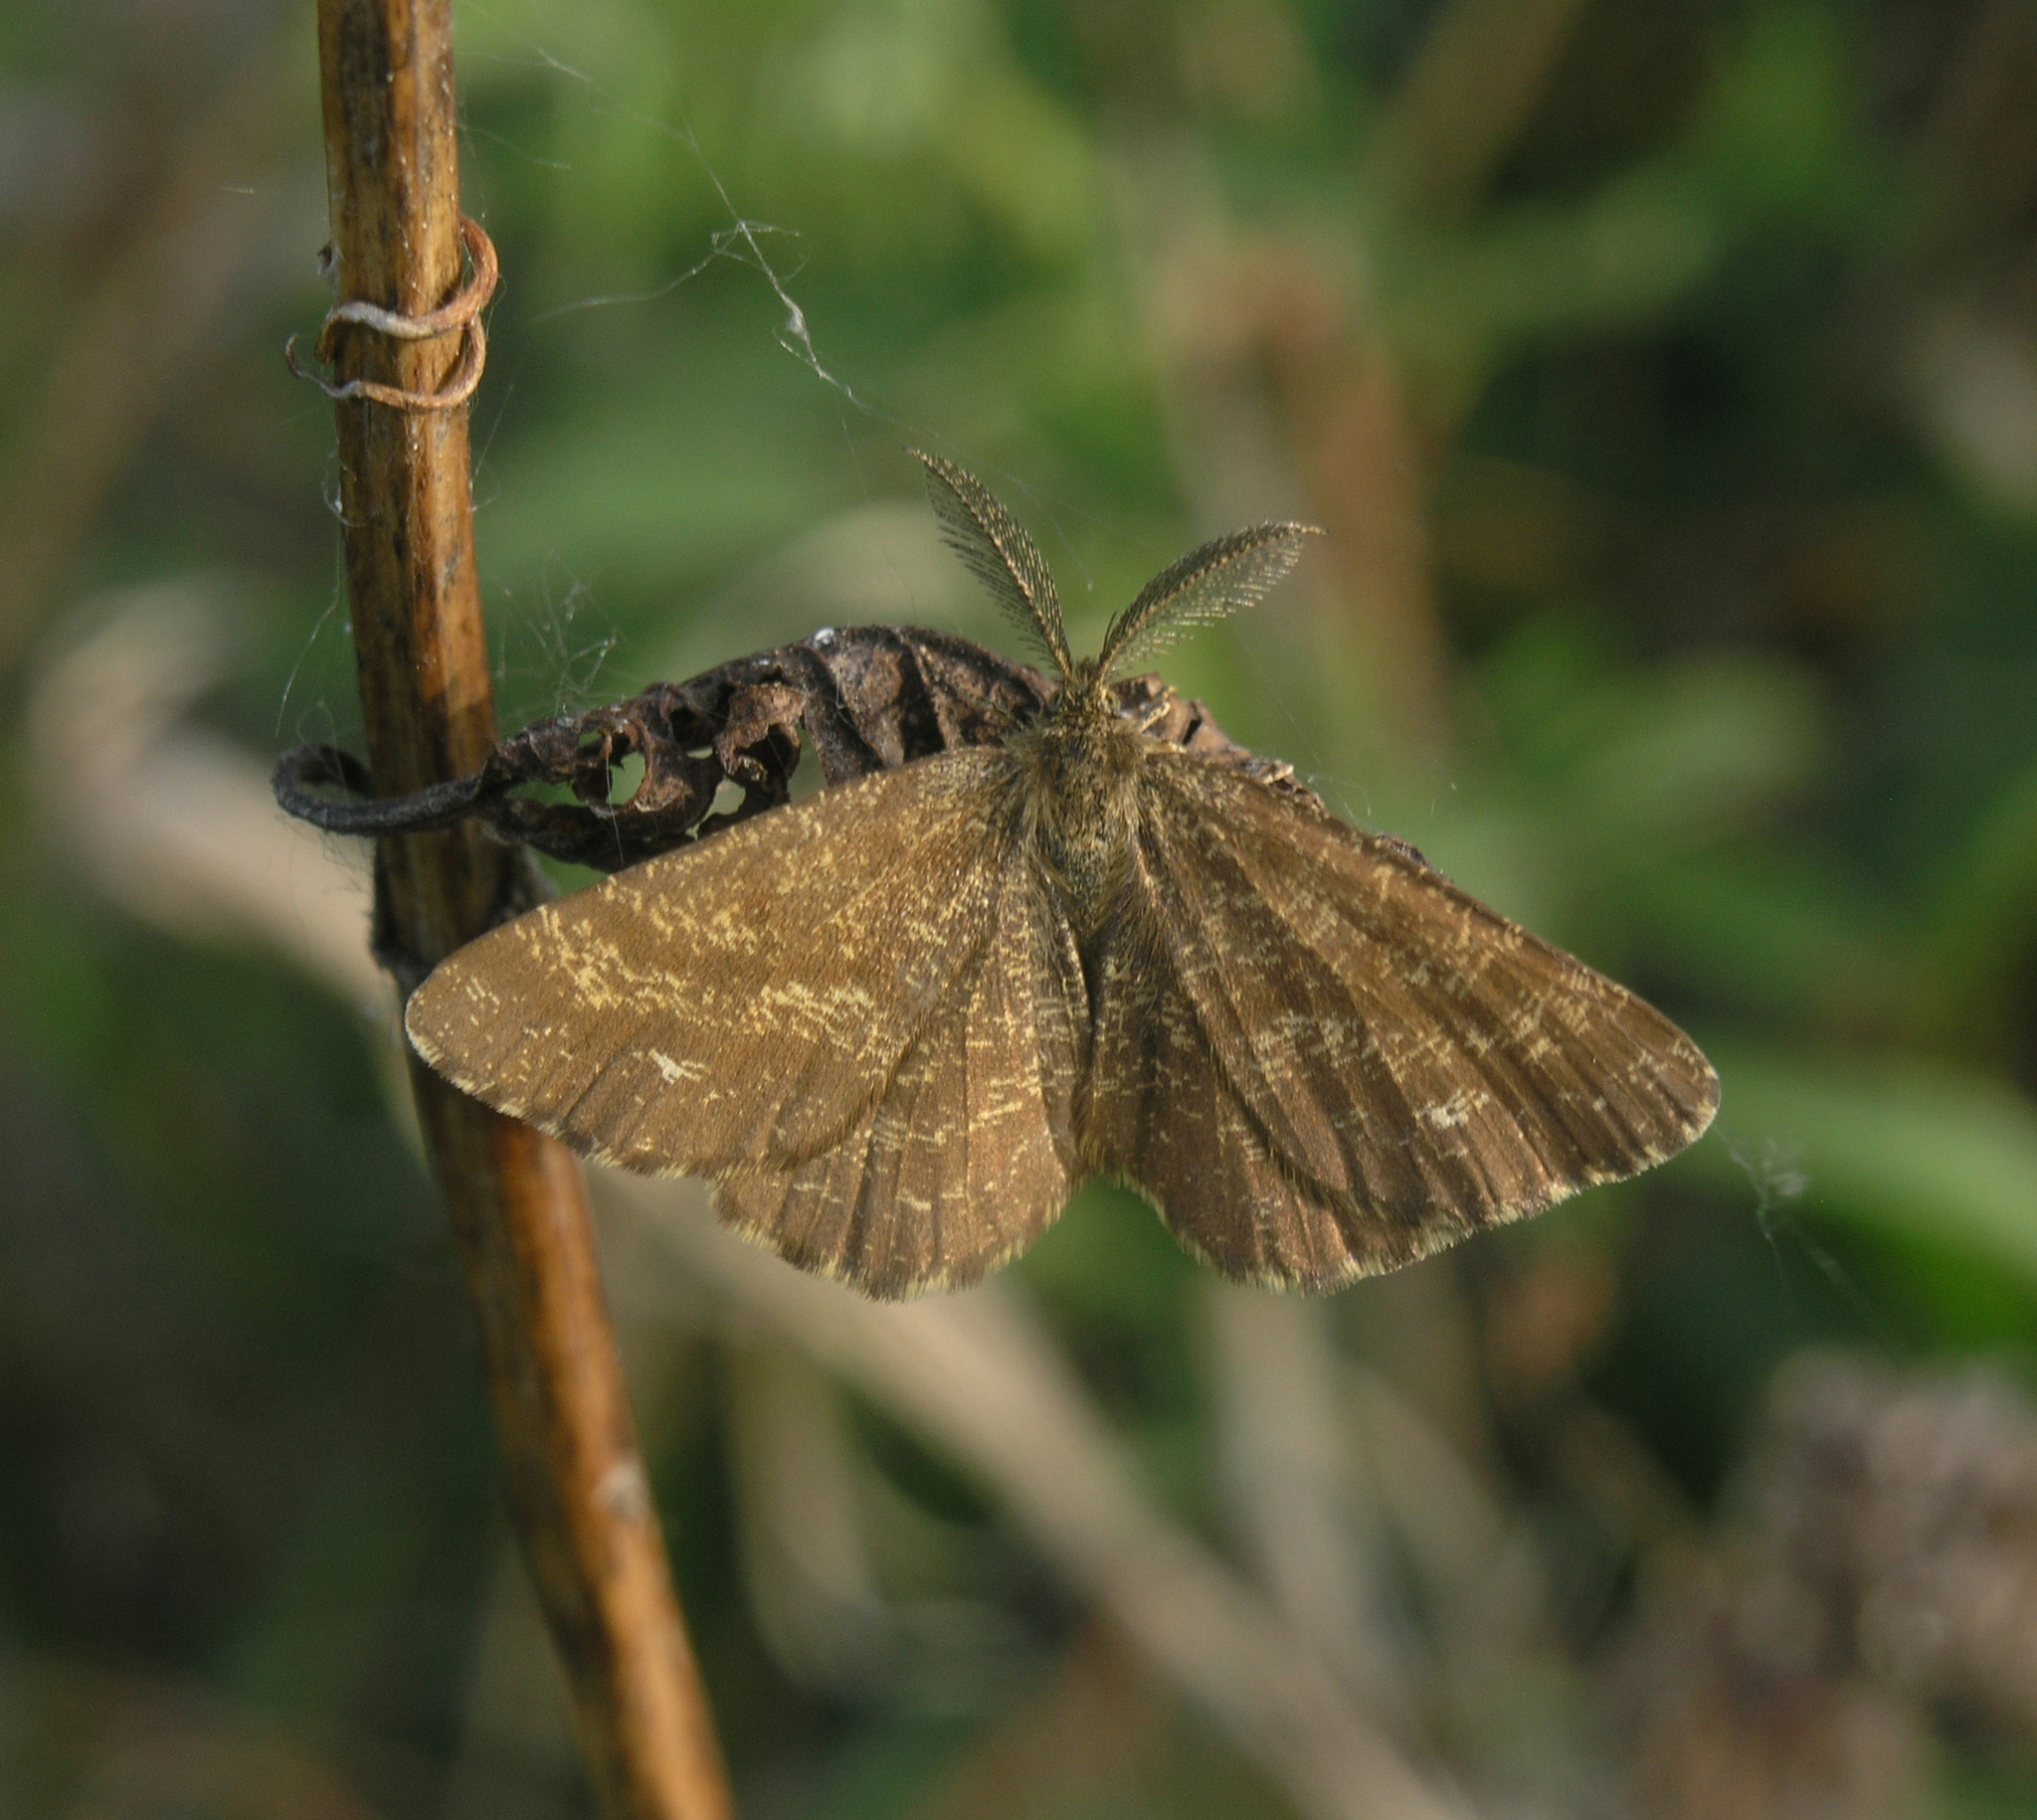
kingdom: Animalia
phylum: Arthropoda
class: Insecta
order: Lepidoptera
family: Geometridae
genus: Ematurga
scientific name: Ematurga atomaria
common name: Common heath
